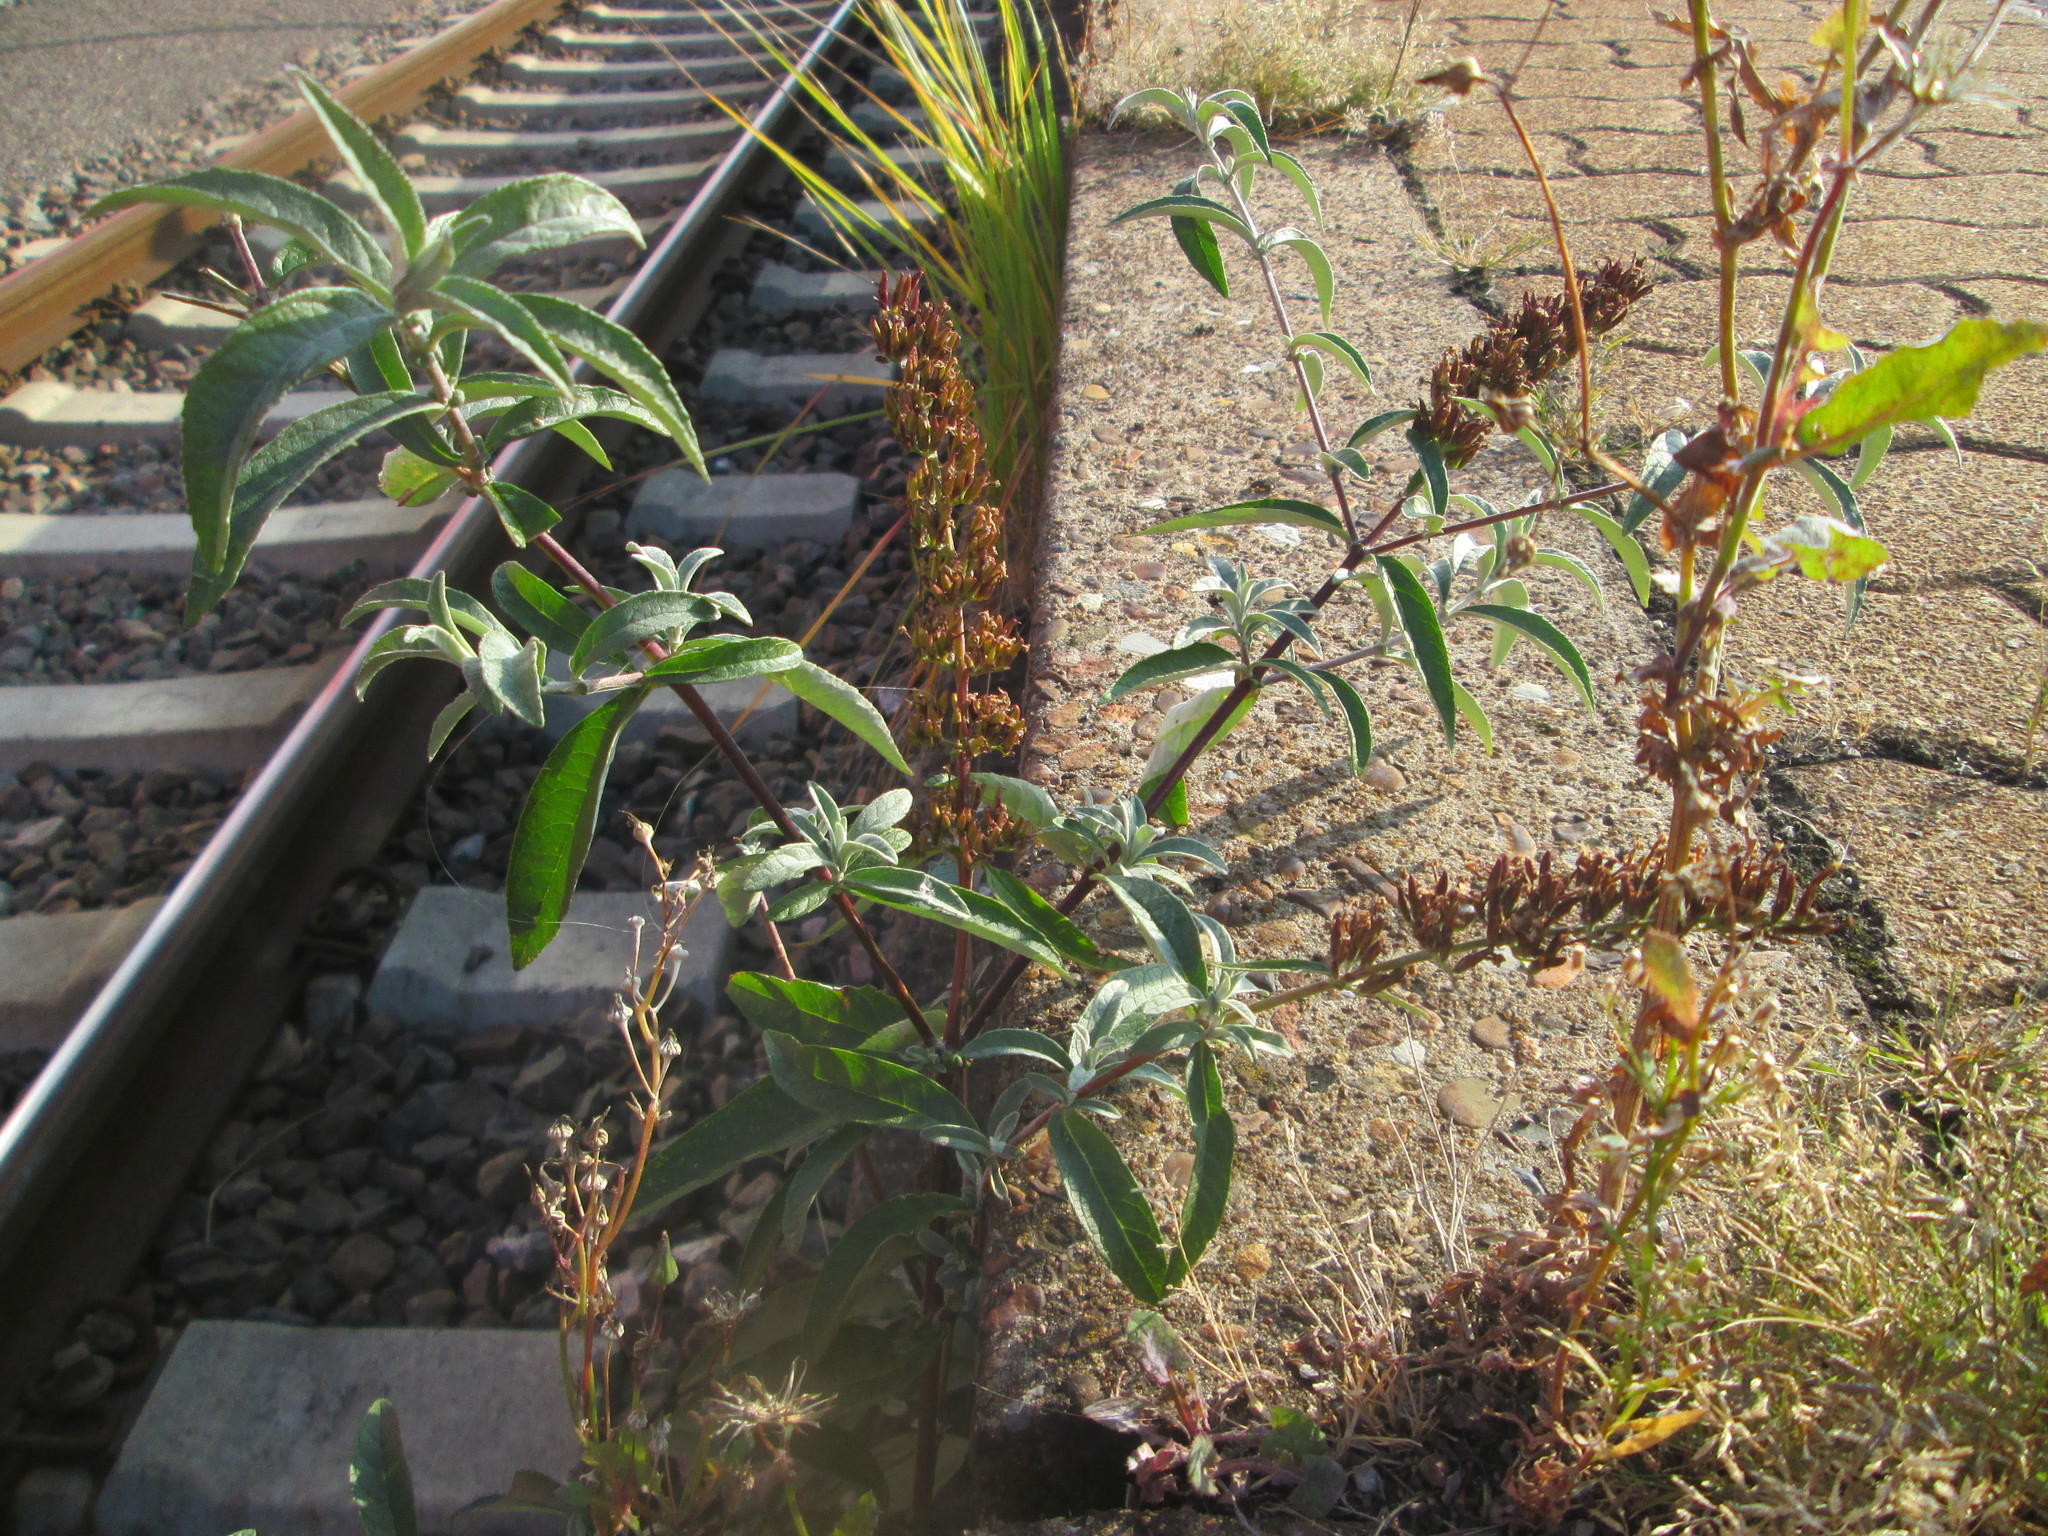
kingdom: Plantae
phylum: Tracheophyta
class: Magnoliopsida
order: Lamiales
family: Scrophulariaceae
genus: Buddleja
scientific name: Buddleja davidii
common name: Butterfly-bush
